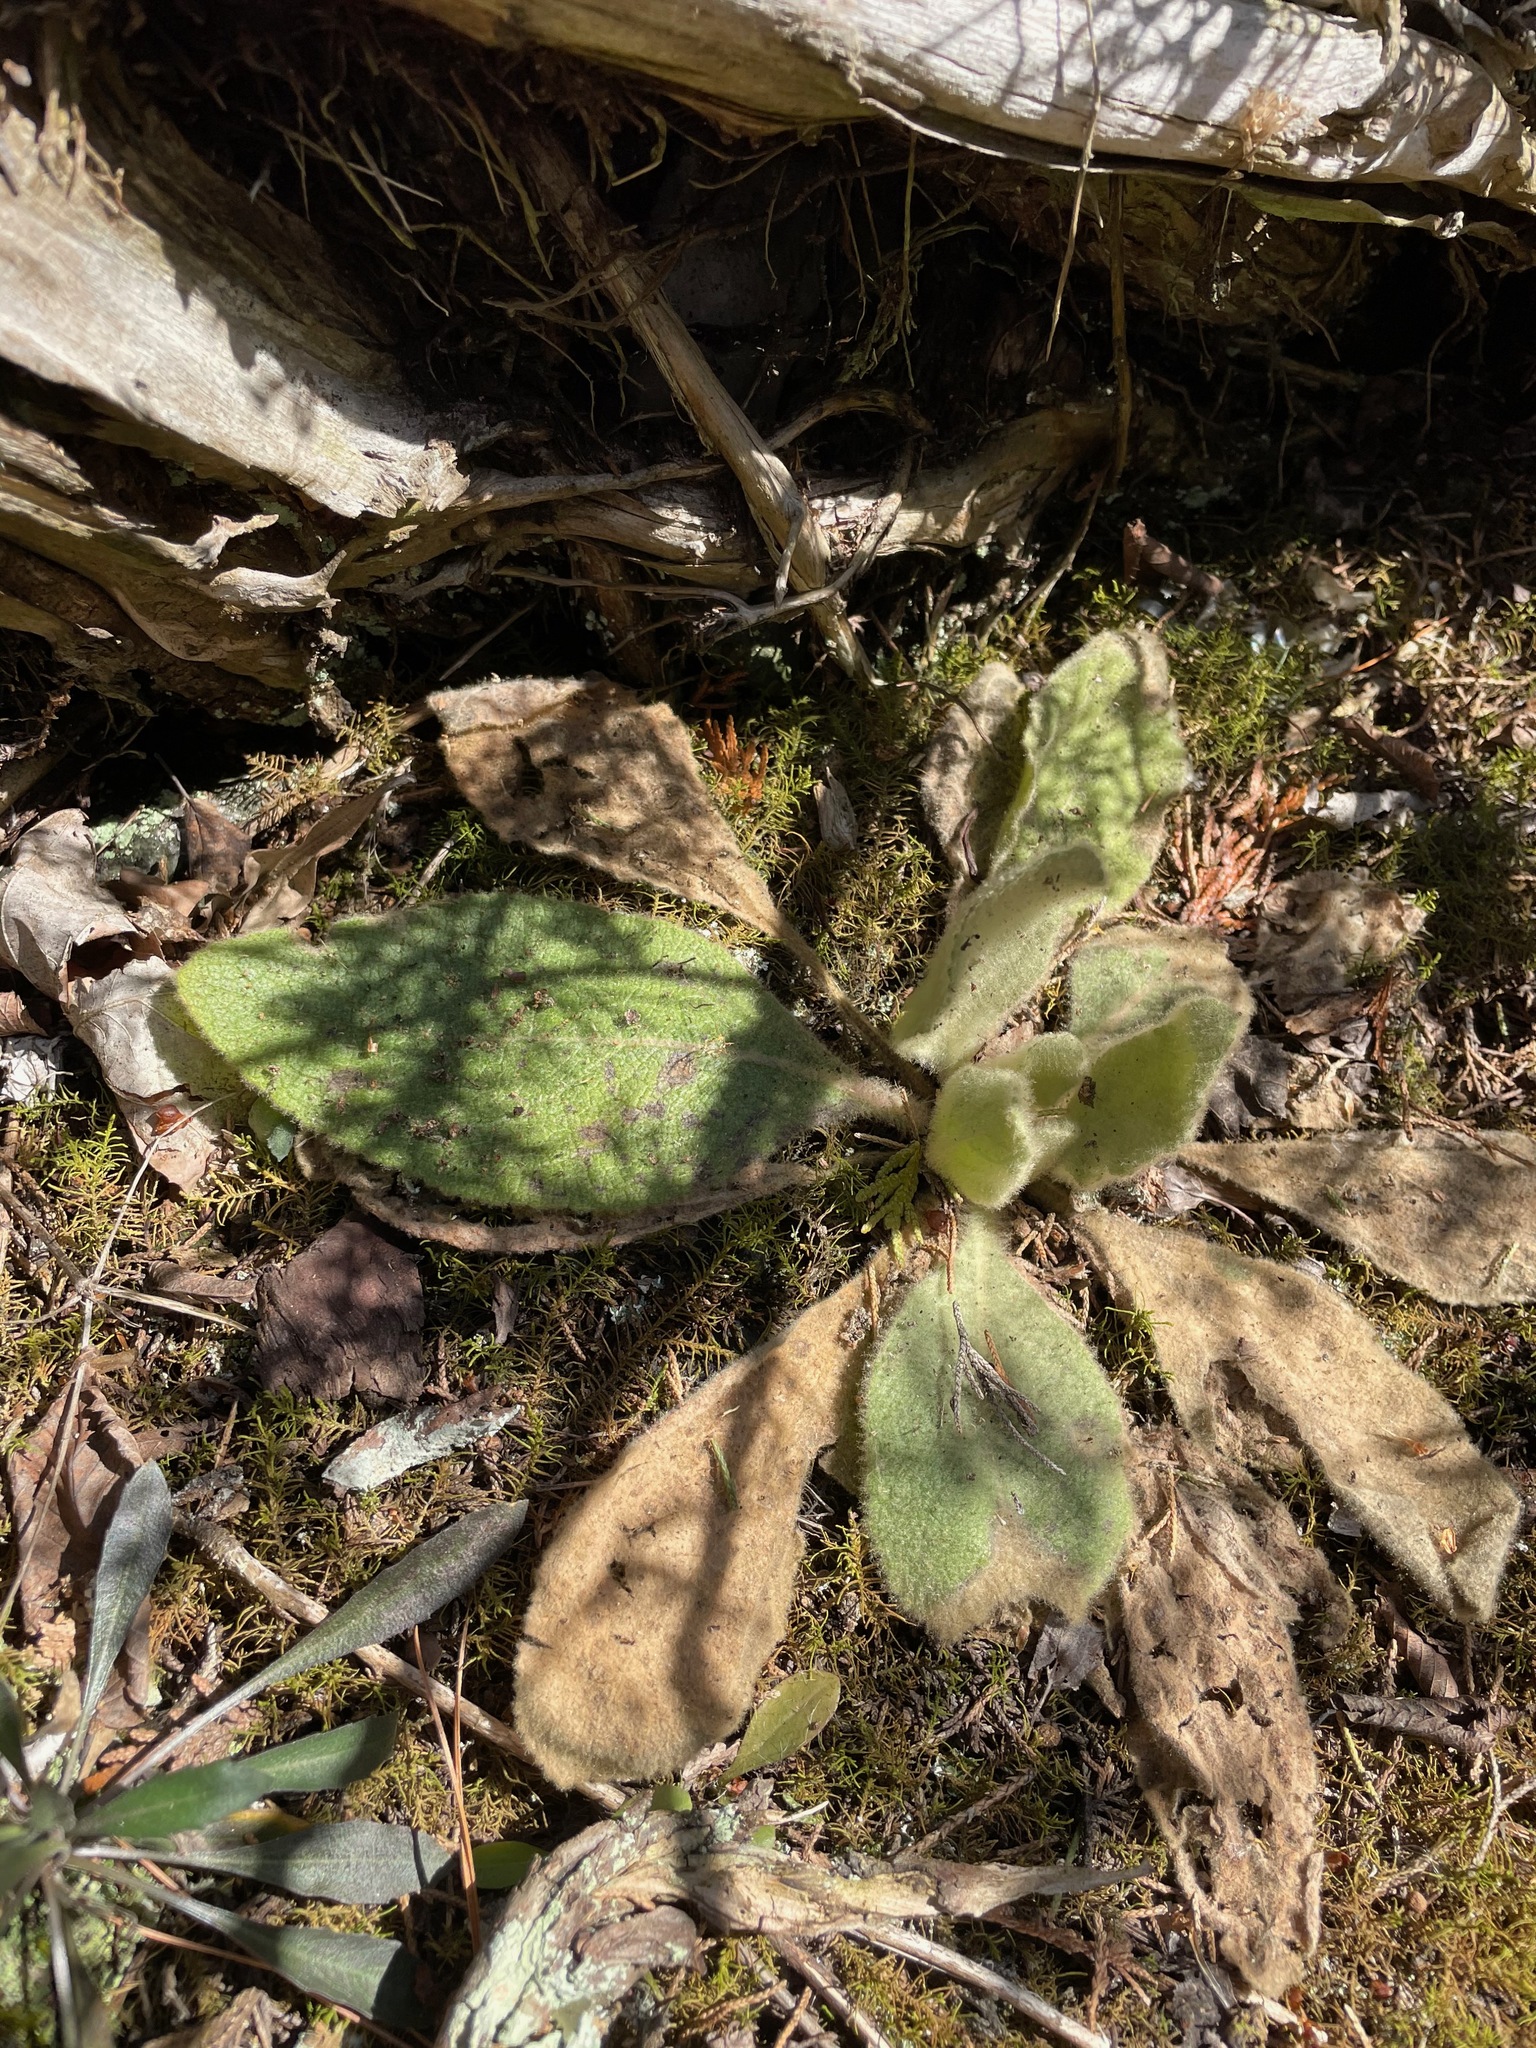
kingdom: Plantae
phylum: Tracheophyta
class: Magnoliopsida
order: Lamiales
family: Scrophulariaceae
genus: Verbascum
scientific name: Verbascum thapsus
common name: Common mullein
